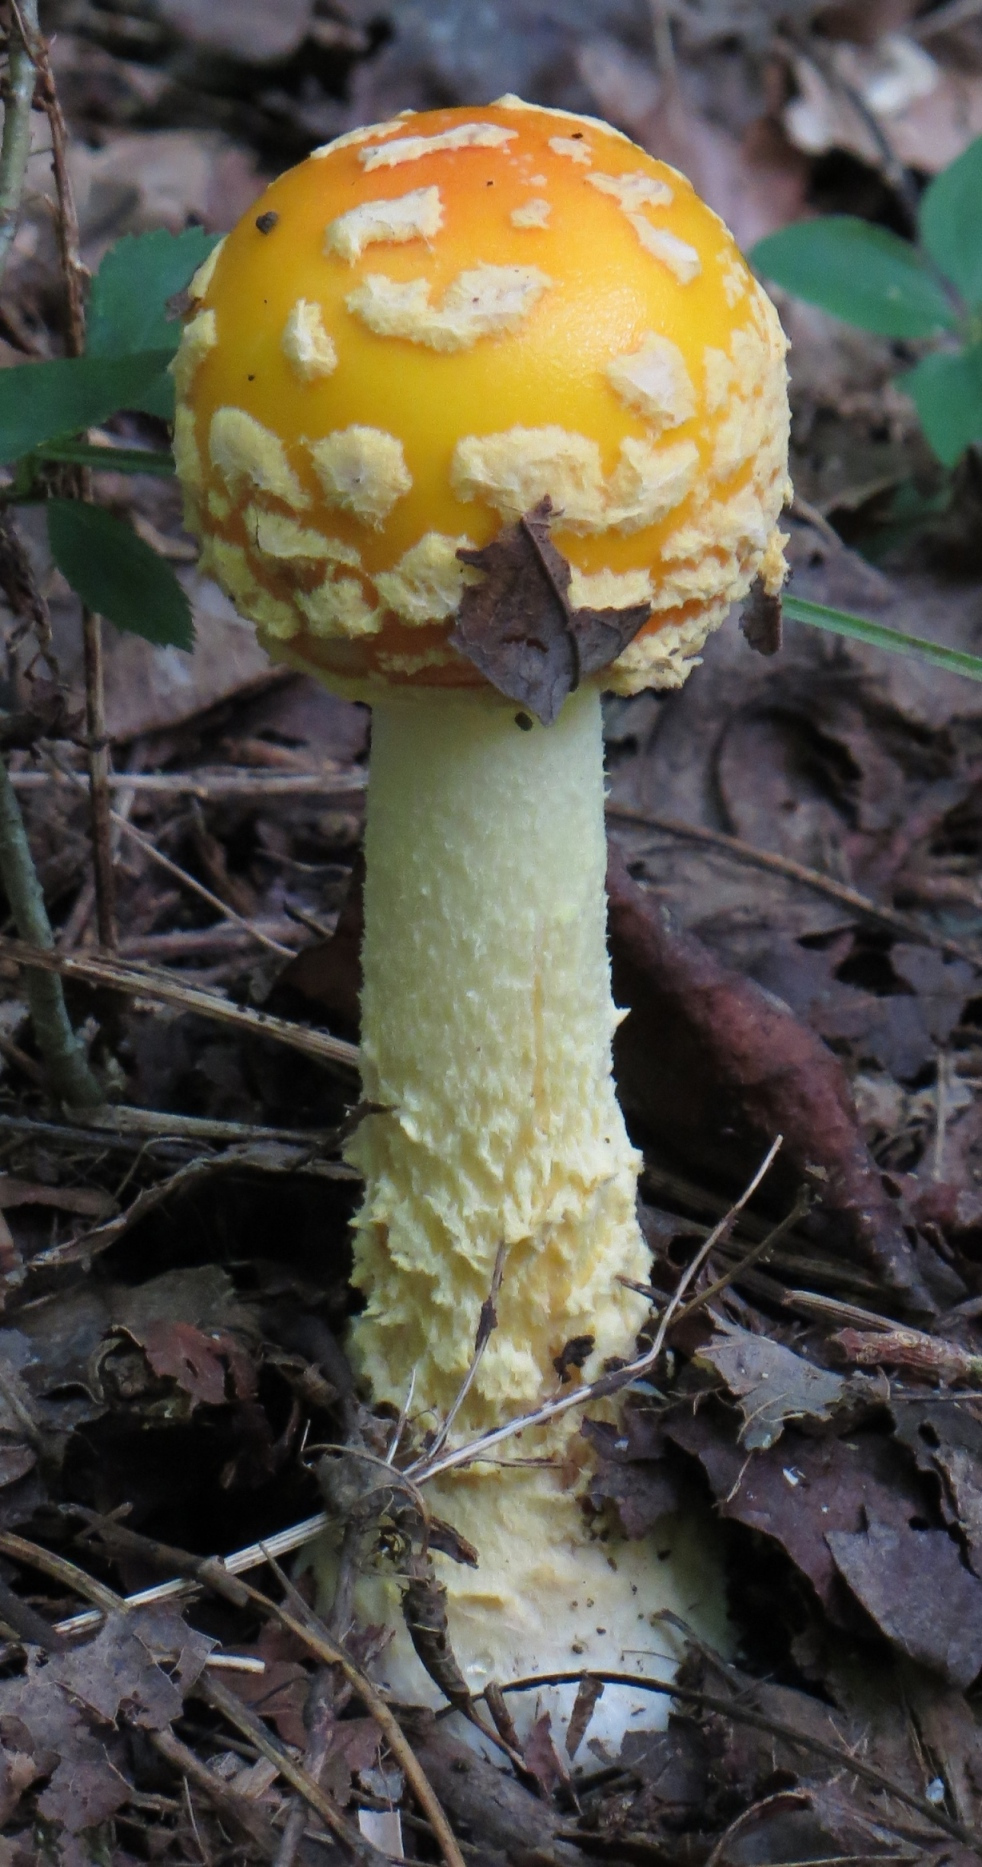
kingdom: Fungi
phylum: Basidiomycota
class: Agaricomycetes
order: Agaricales
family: Amanitaceae
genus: Amanita
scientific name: Amanita muscaria
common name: Fly agaric
